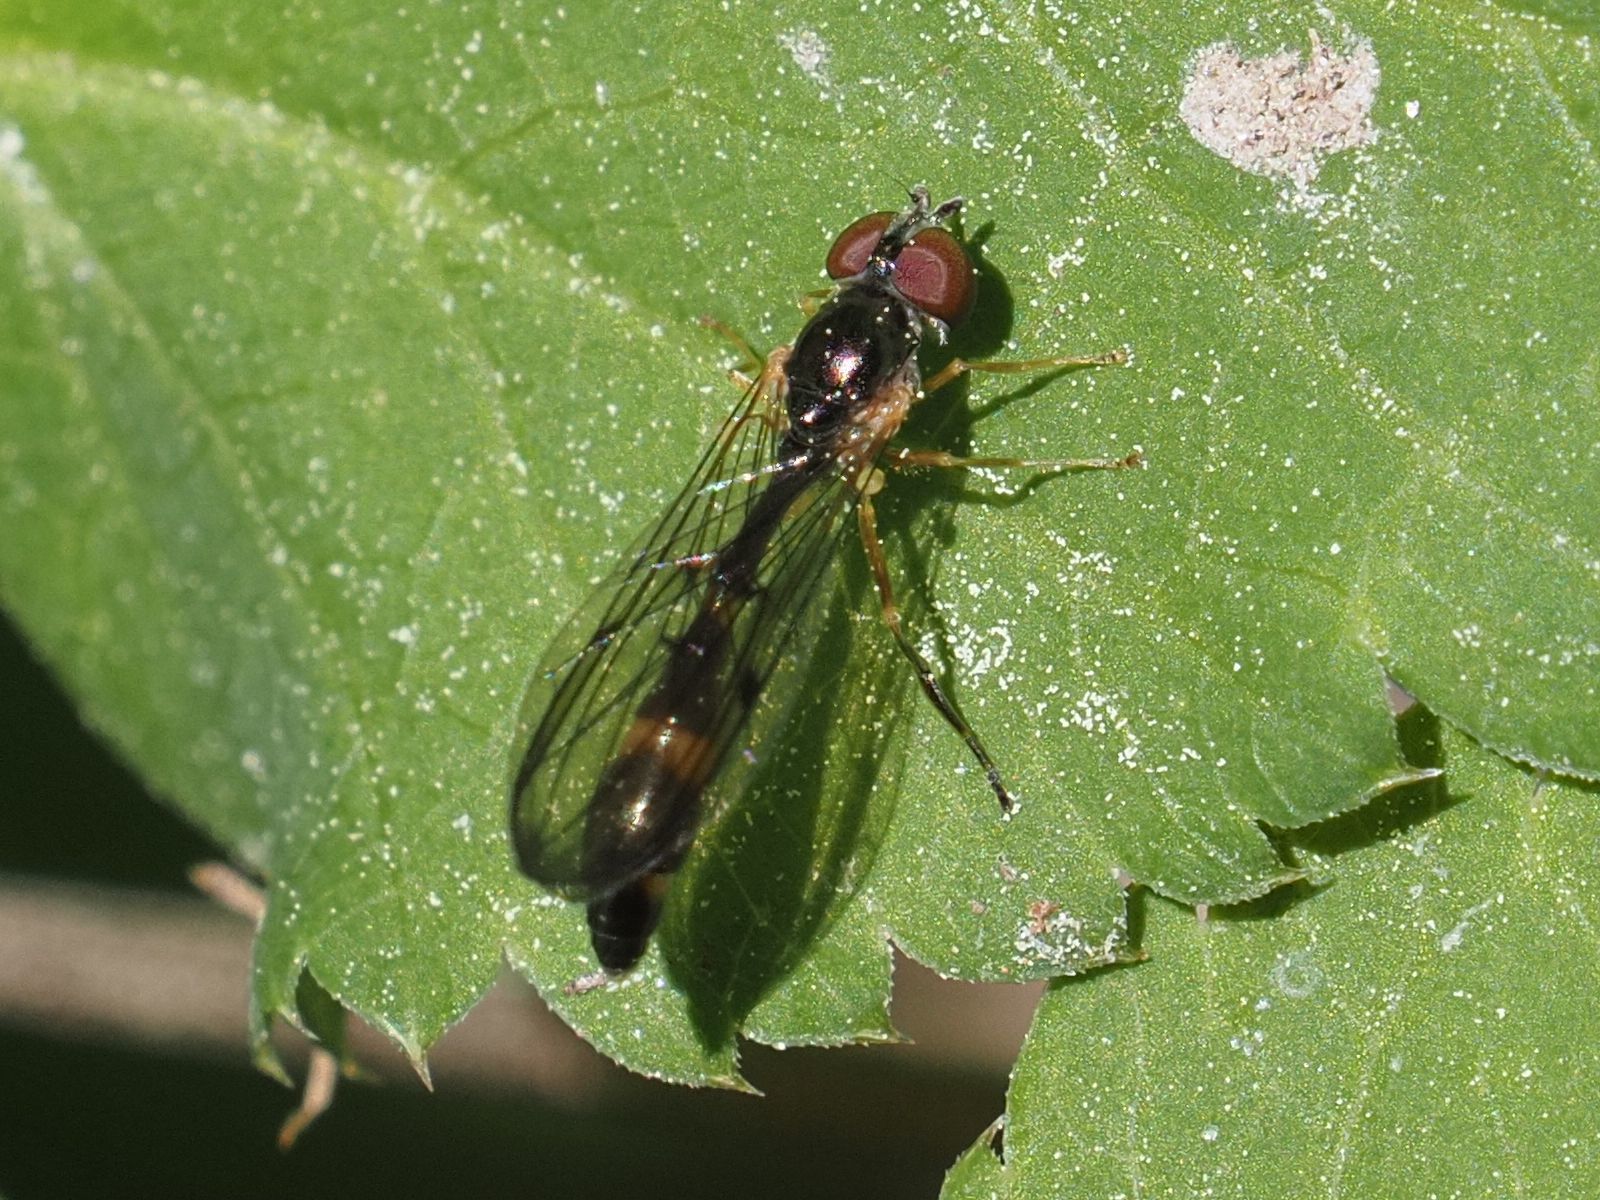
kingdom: Animalia
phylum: Arthropoda
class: Insecta
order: Diptera
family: Syrphidae
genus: Baccha
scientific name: Baccha elongata
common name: Common dainty
